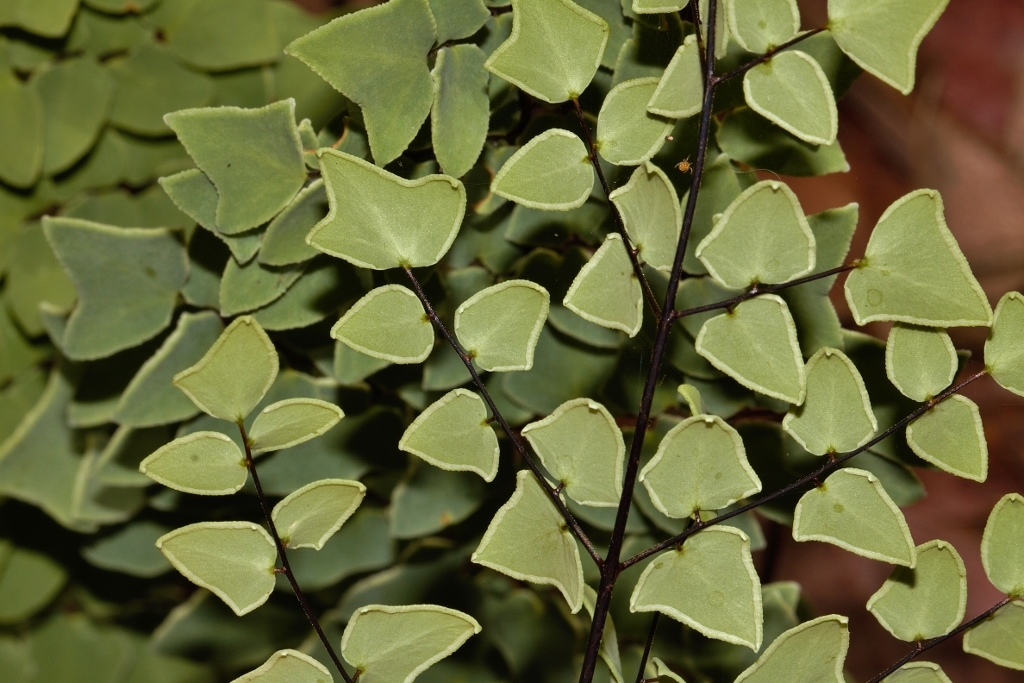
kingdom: Plantae
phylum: Tracheophyta
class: Polypodiopsida
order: Polypodiales
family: Pteridaceae
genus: Pellaea
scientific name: Pellaea calomelanos
